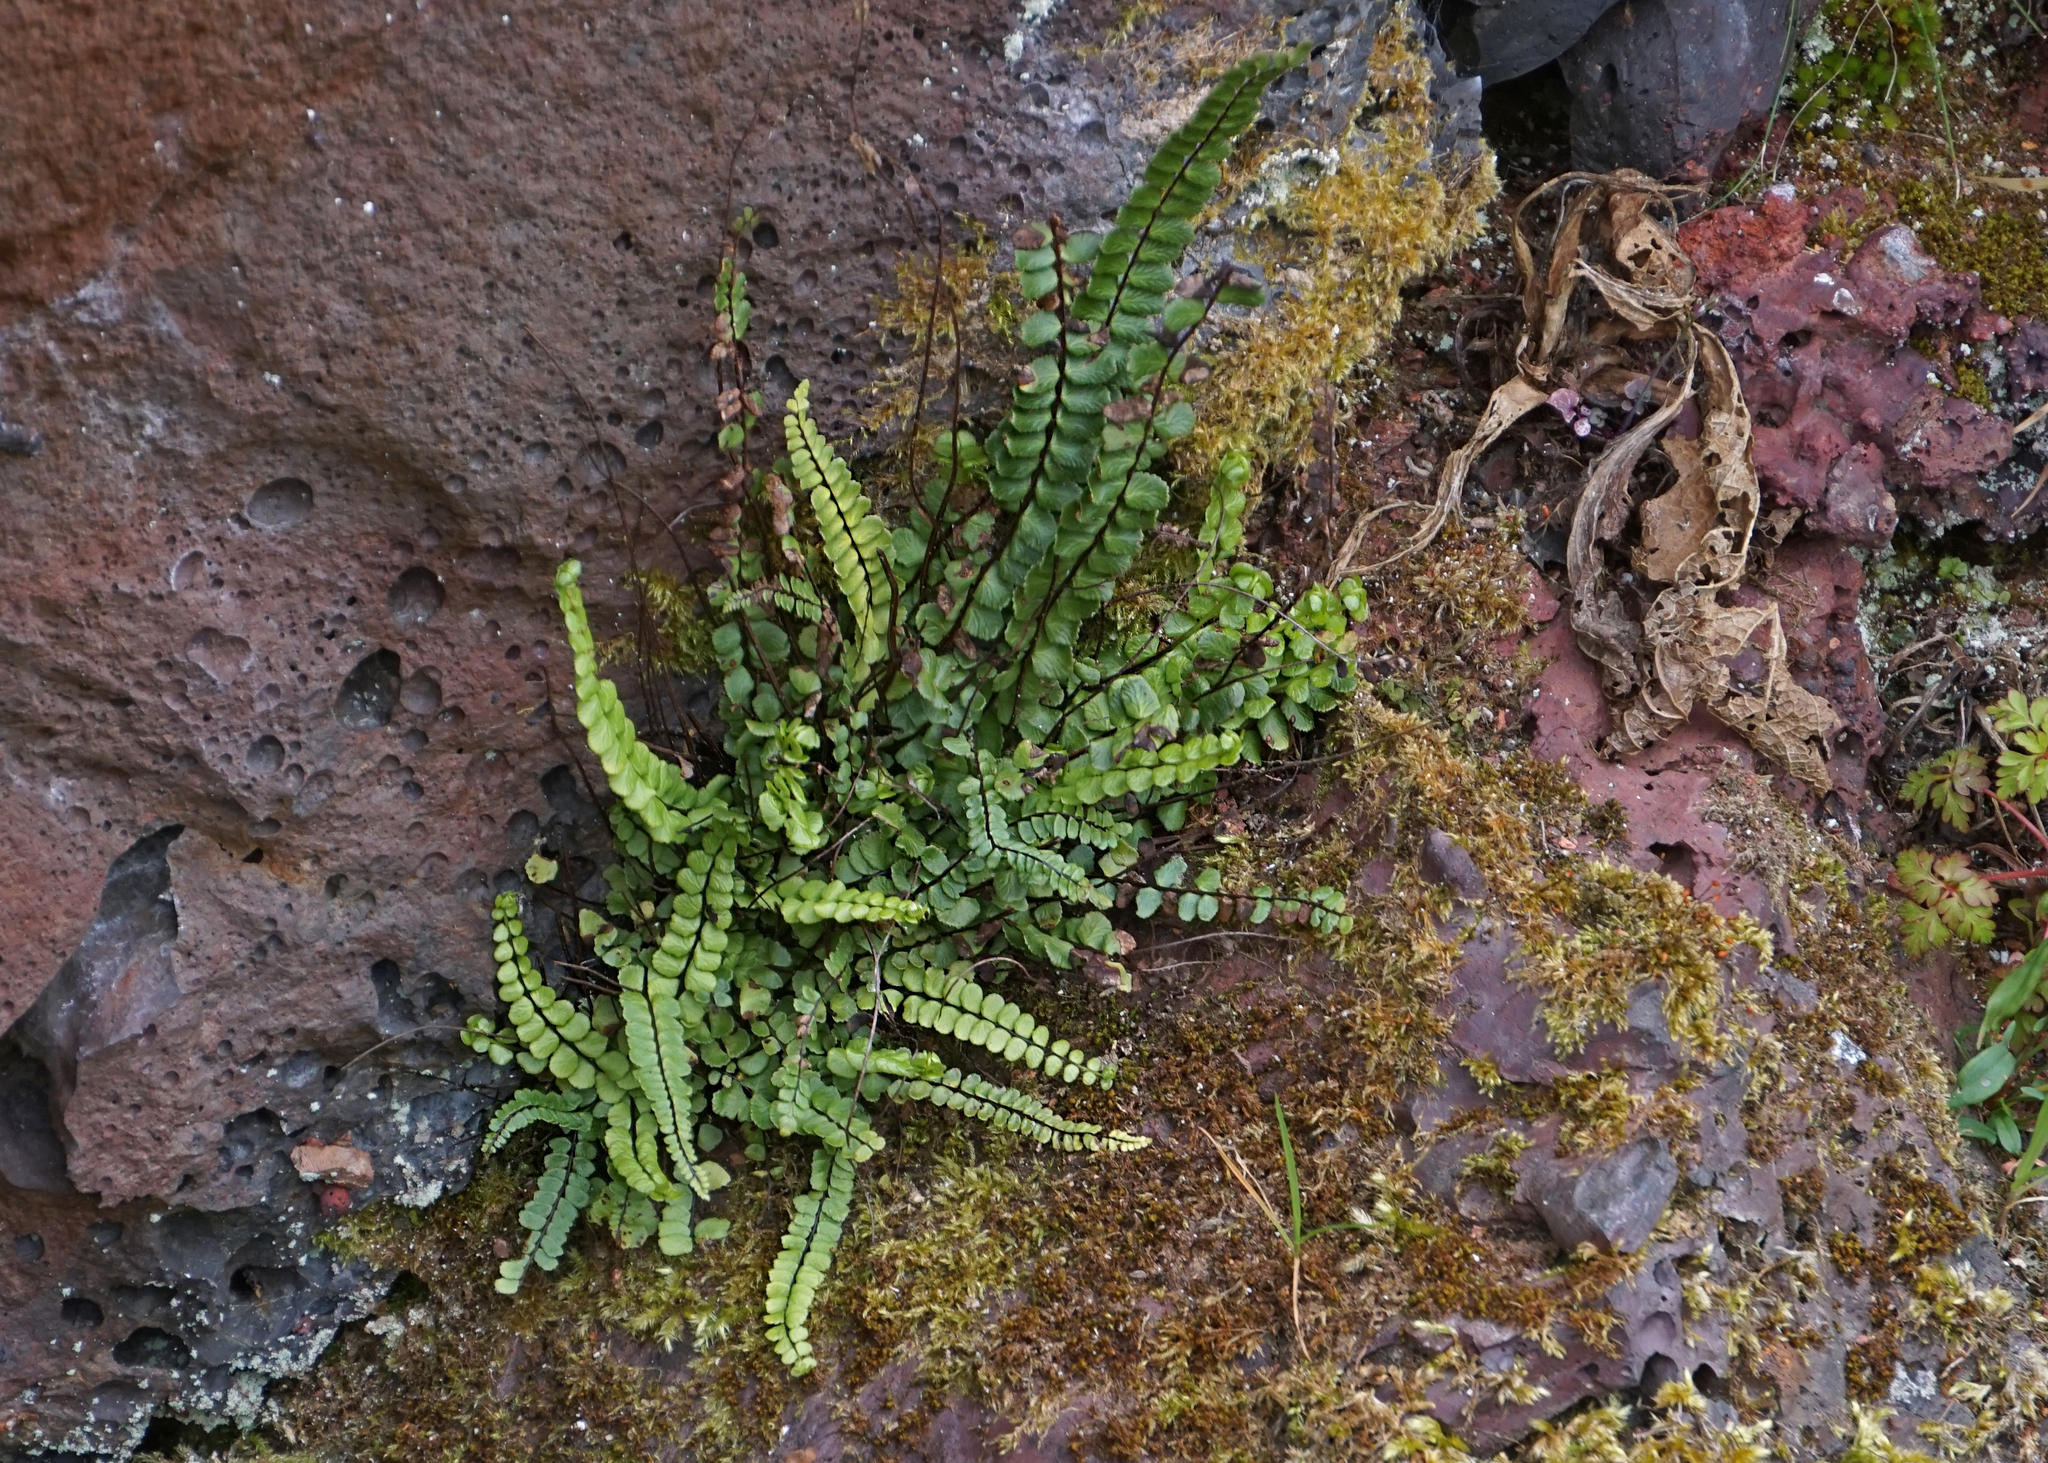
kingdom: Plantae
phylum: Tracheophyta
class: Polypodiopsida
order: Polypodiales
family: Aspleniaceae
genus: Asplenium
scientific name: Asplenium trichomanes
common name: Maidenhair spleenwort
